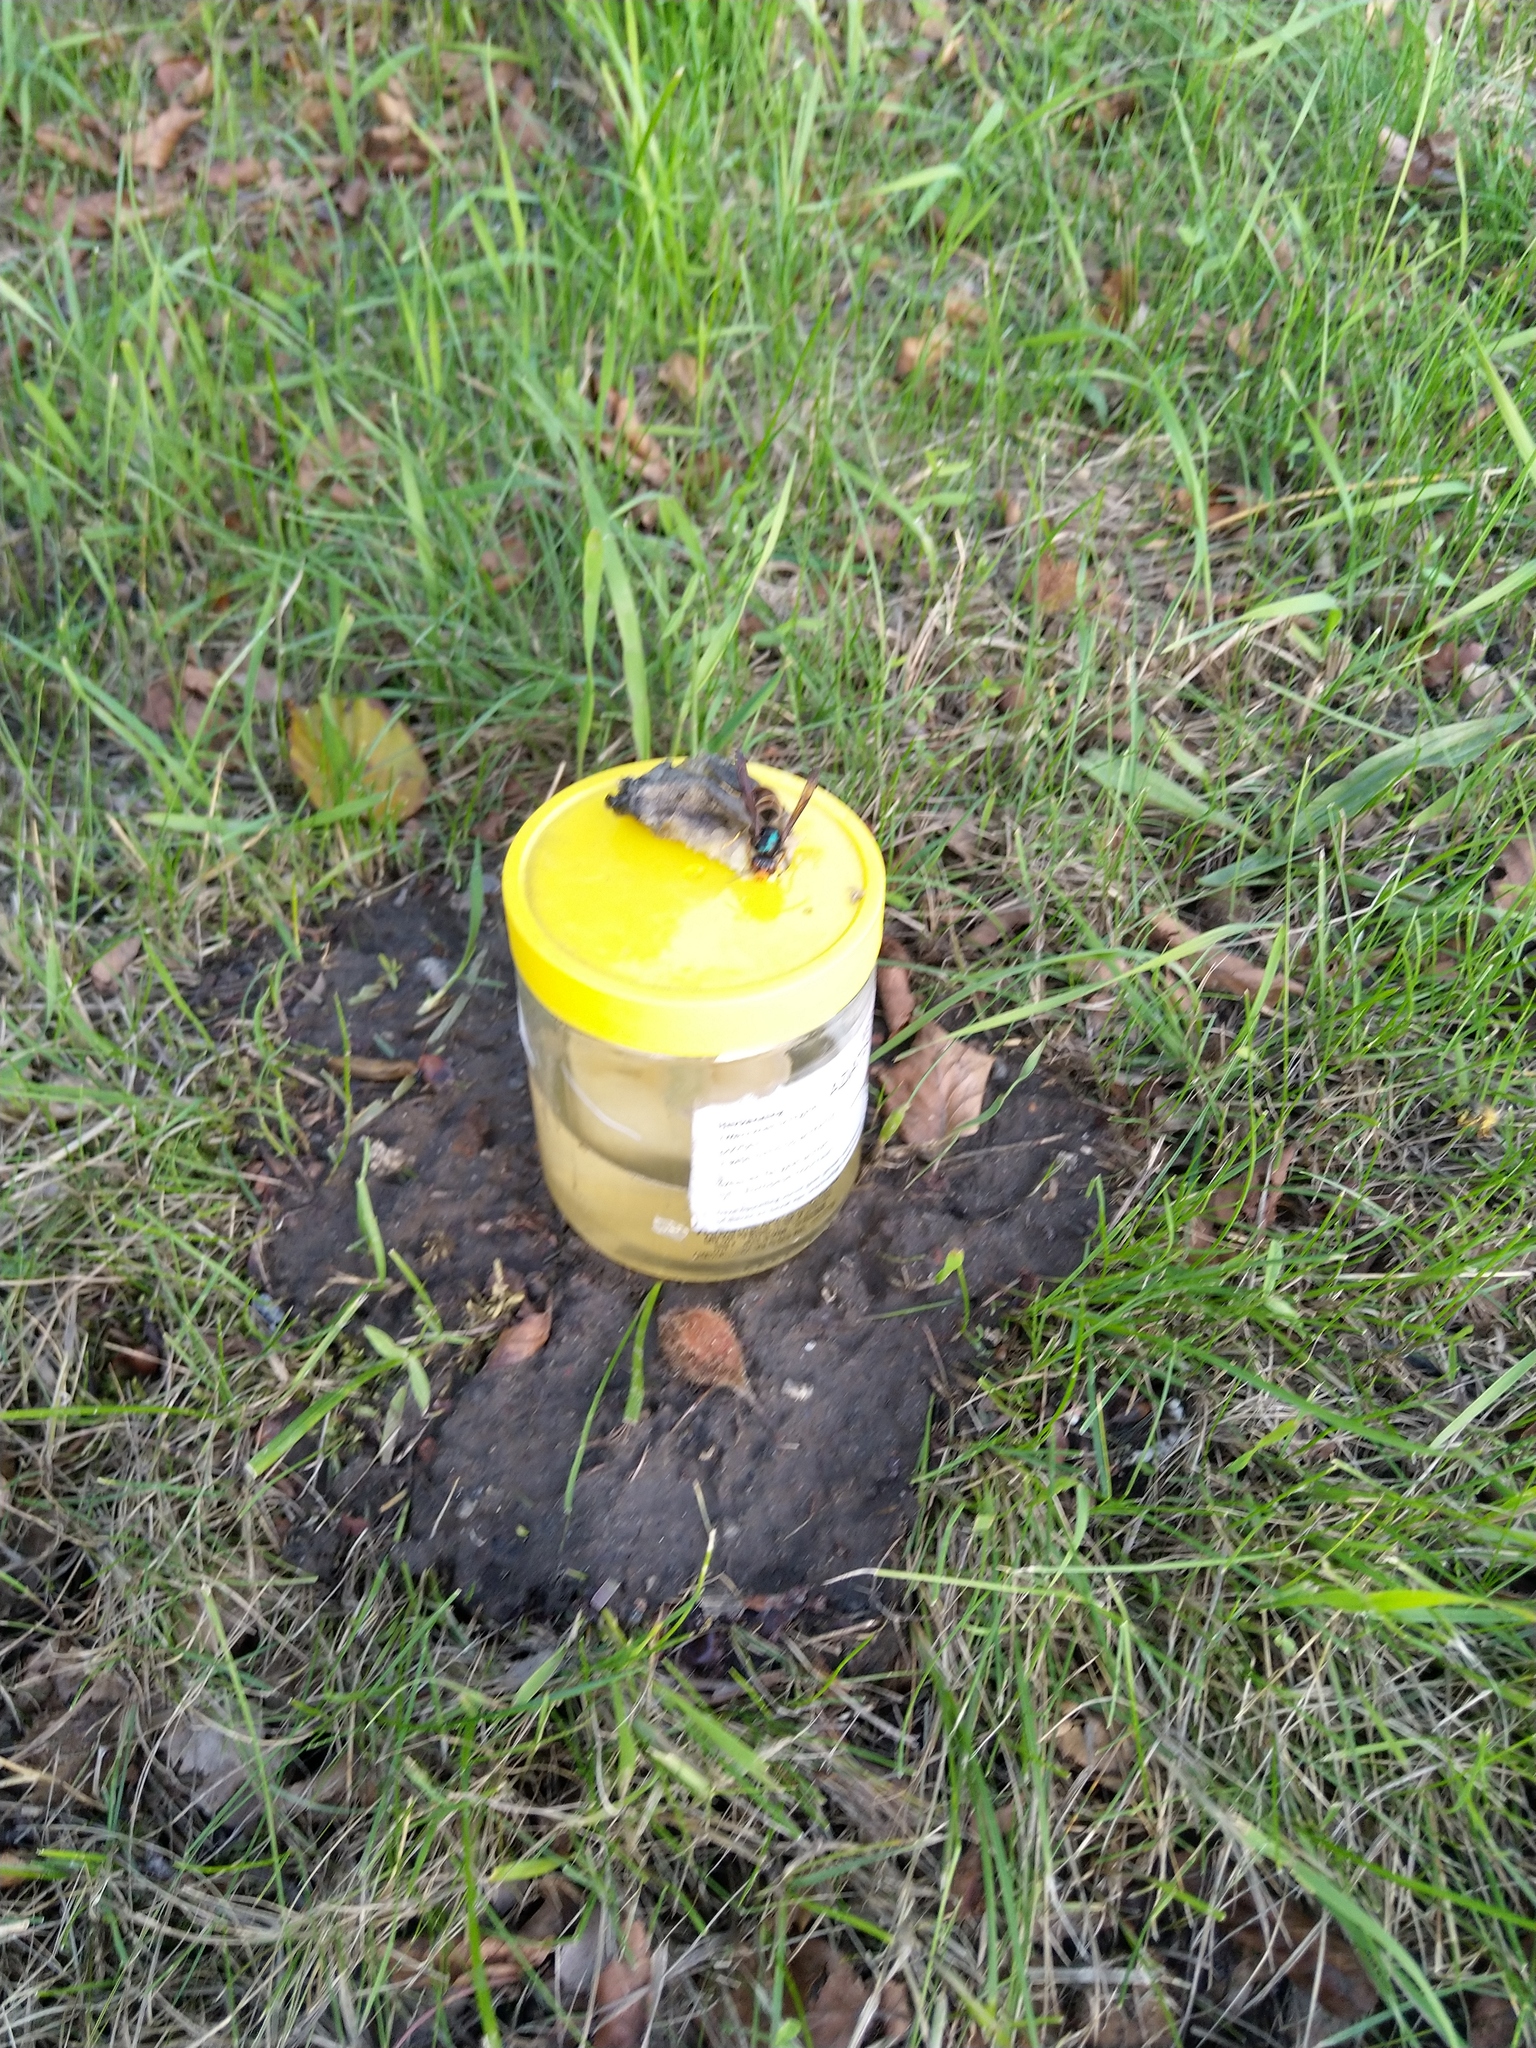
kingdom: Animalia
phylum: Arthropoda
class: Insecta
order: Hymenoptera
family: Vespidae
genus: Vespa
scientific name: Vespa velutina
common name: Asian hornet
